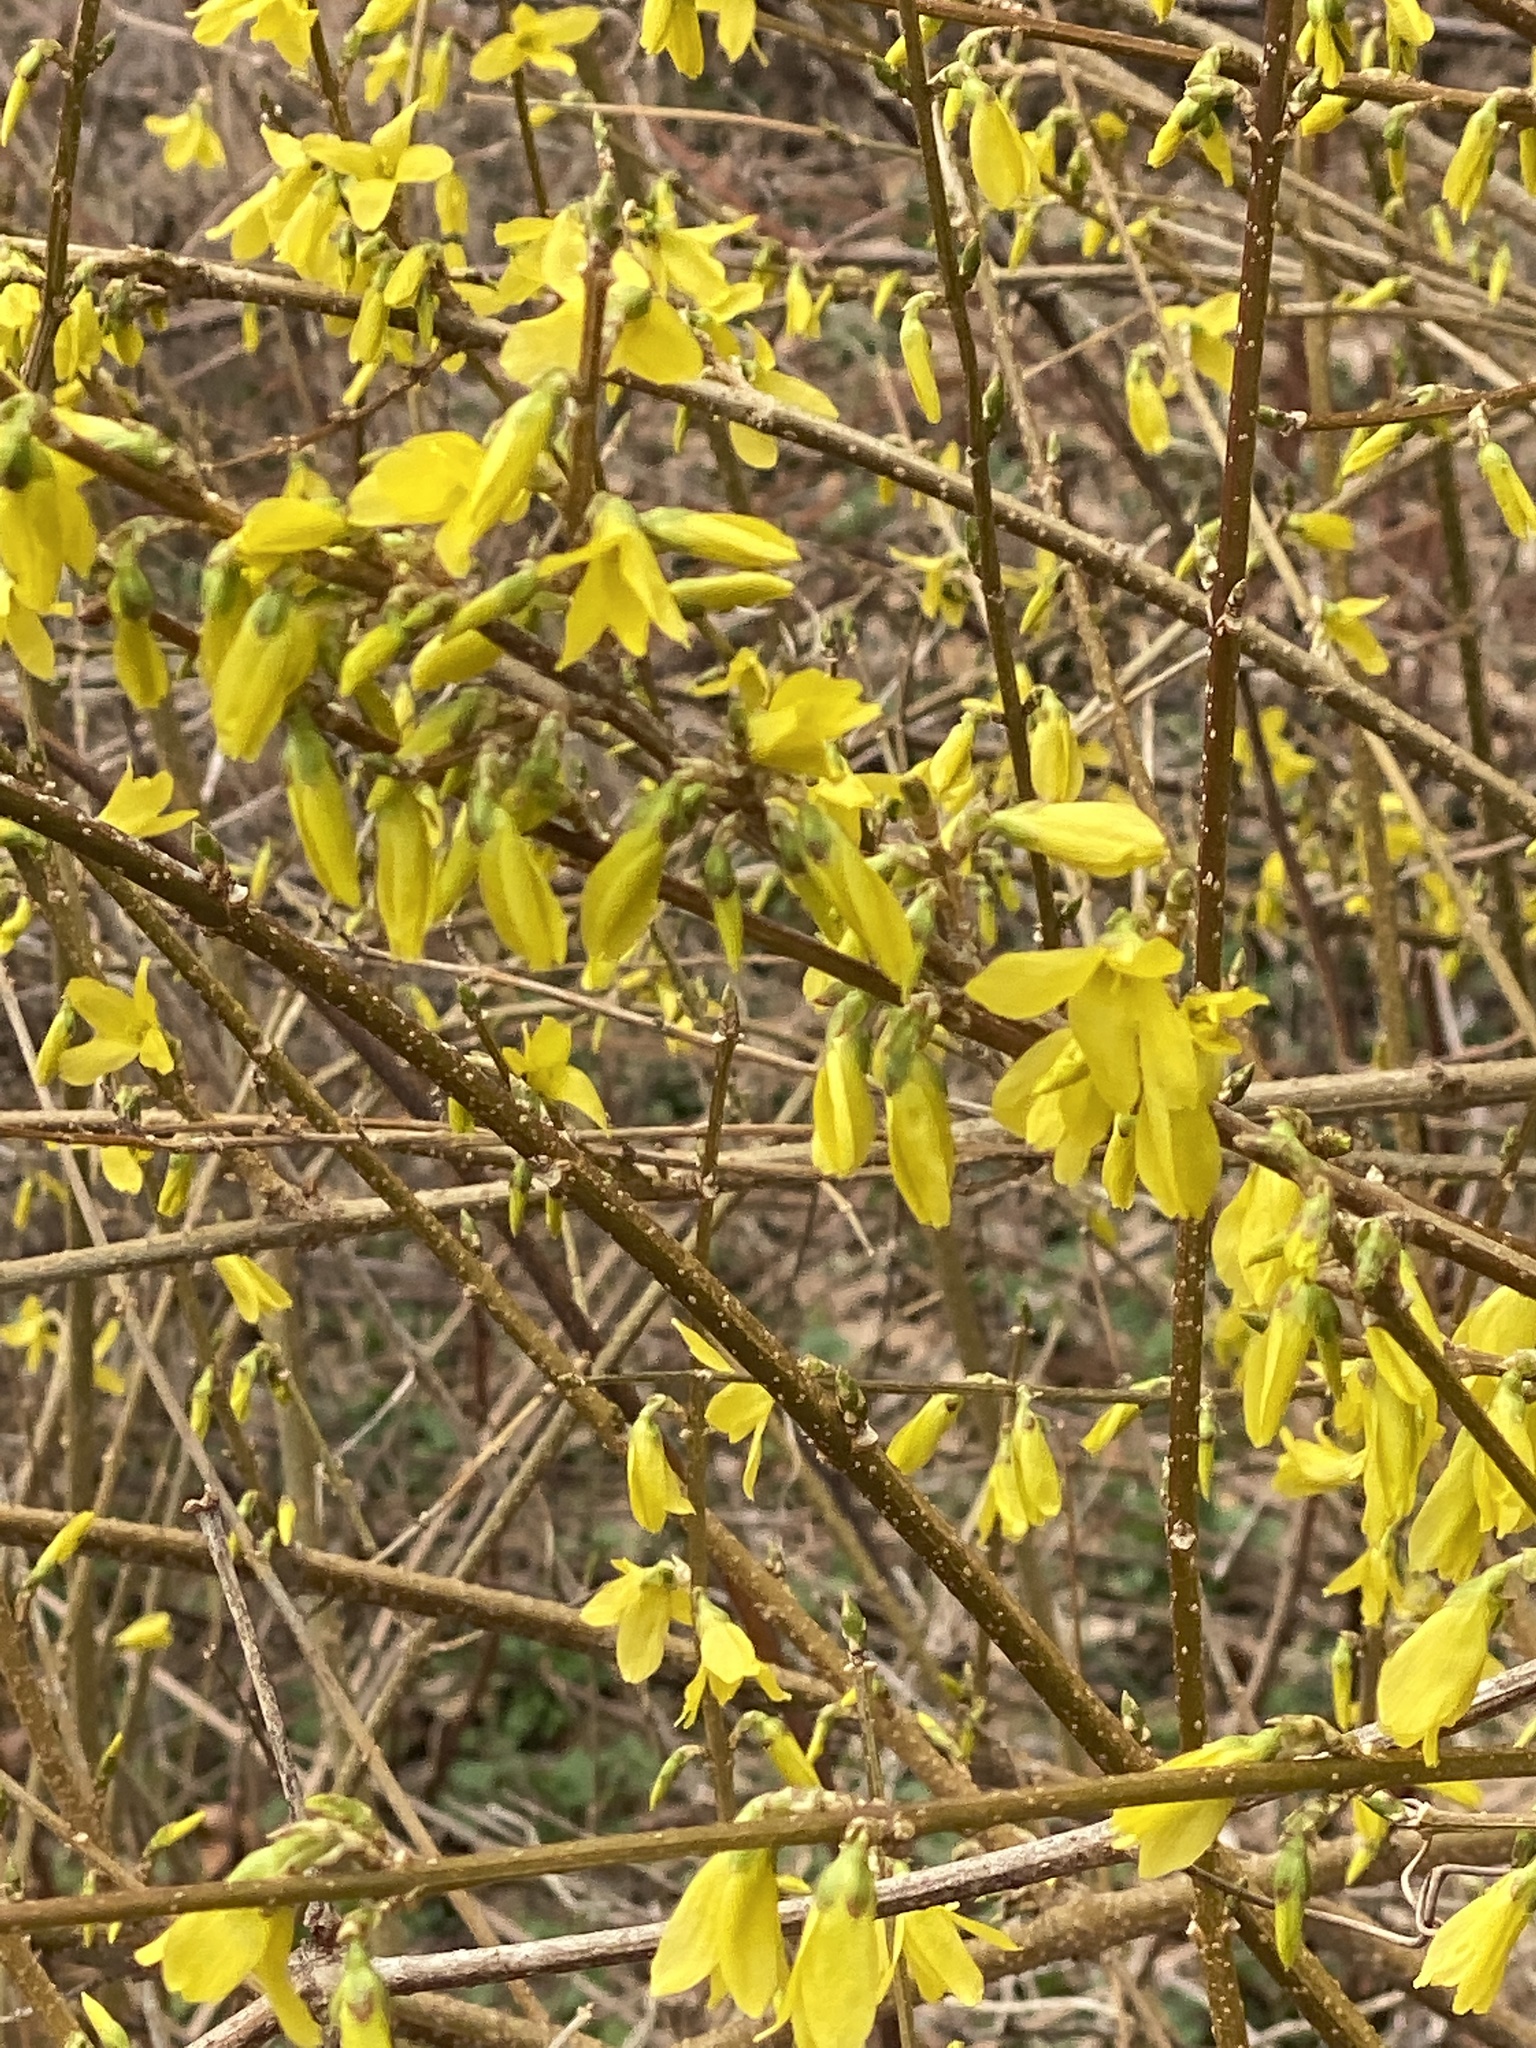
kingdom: Plantae
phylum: Tracheophyta
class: Magnoliopsida
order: Lamiales
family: Oleaceae
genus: Forsythia
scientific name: Forsythia
